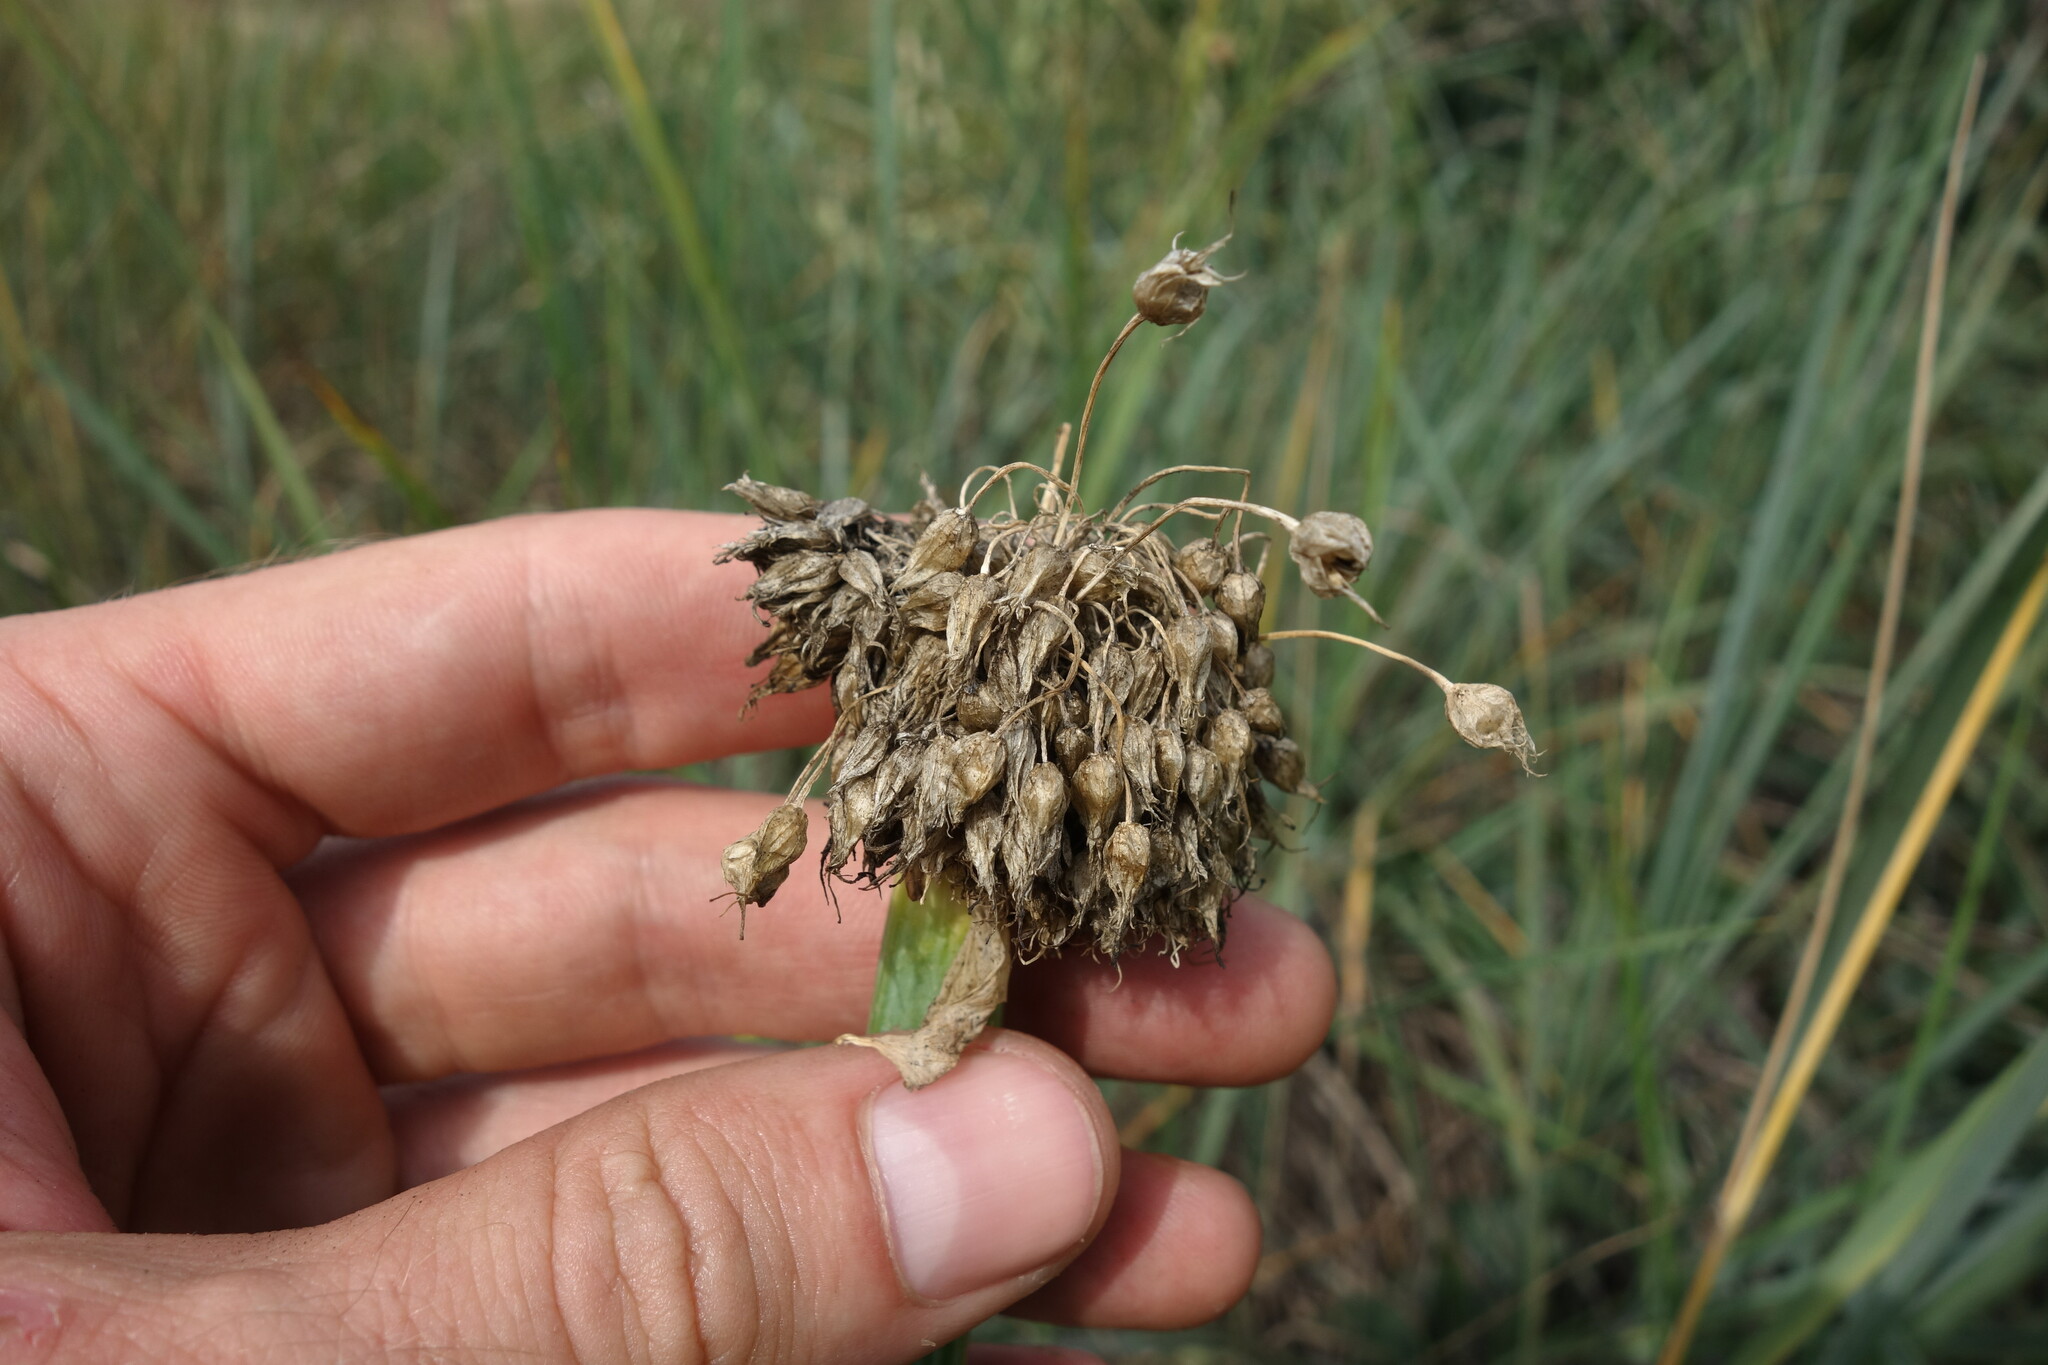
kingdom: Plantae
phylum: Tracheophyta
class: Liliopsida
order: Asparagales
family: Amaryllidaceae
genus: Allium
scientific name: Allium fistulosum
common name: Welsh onion
